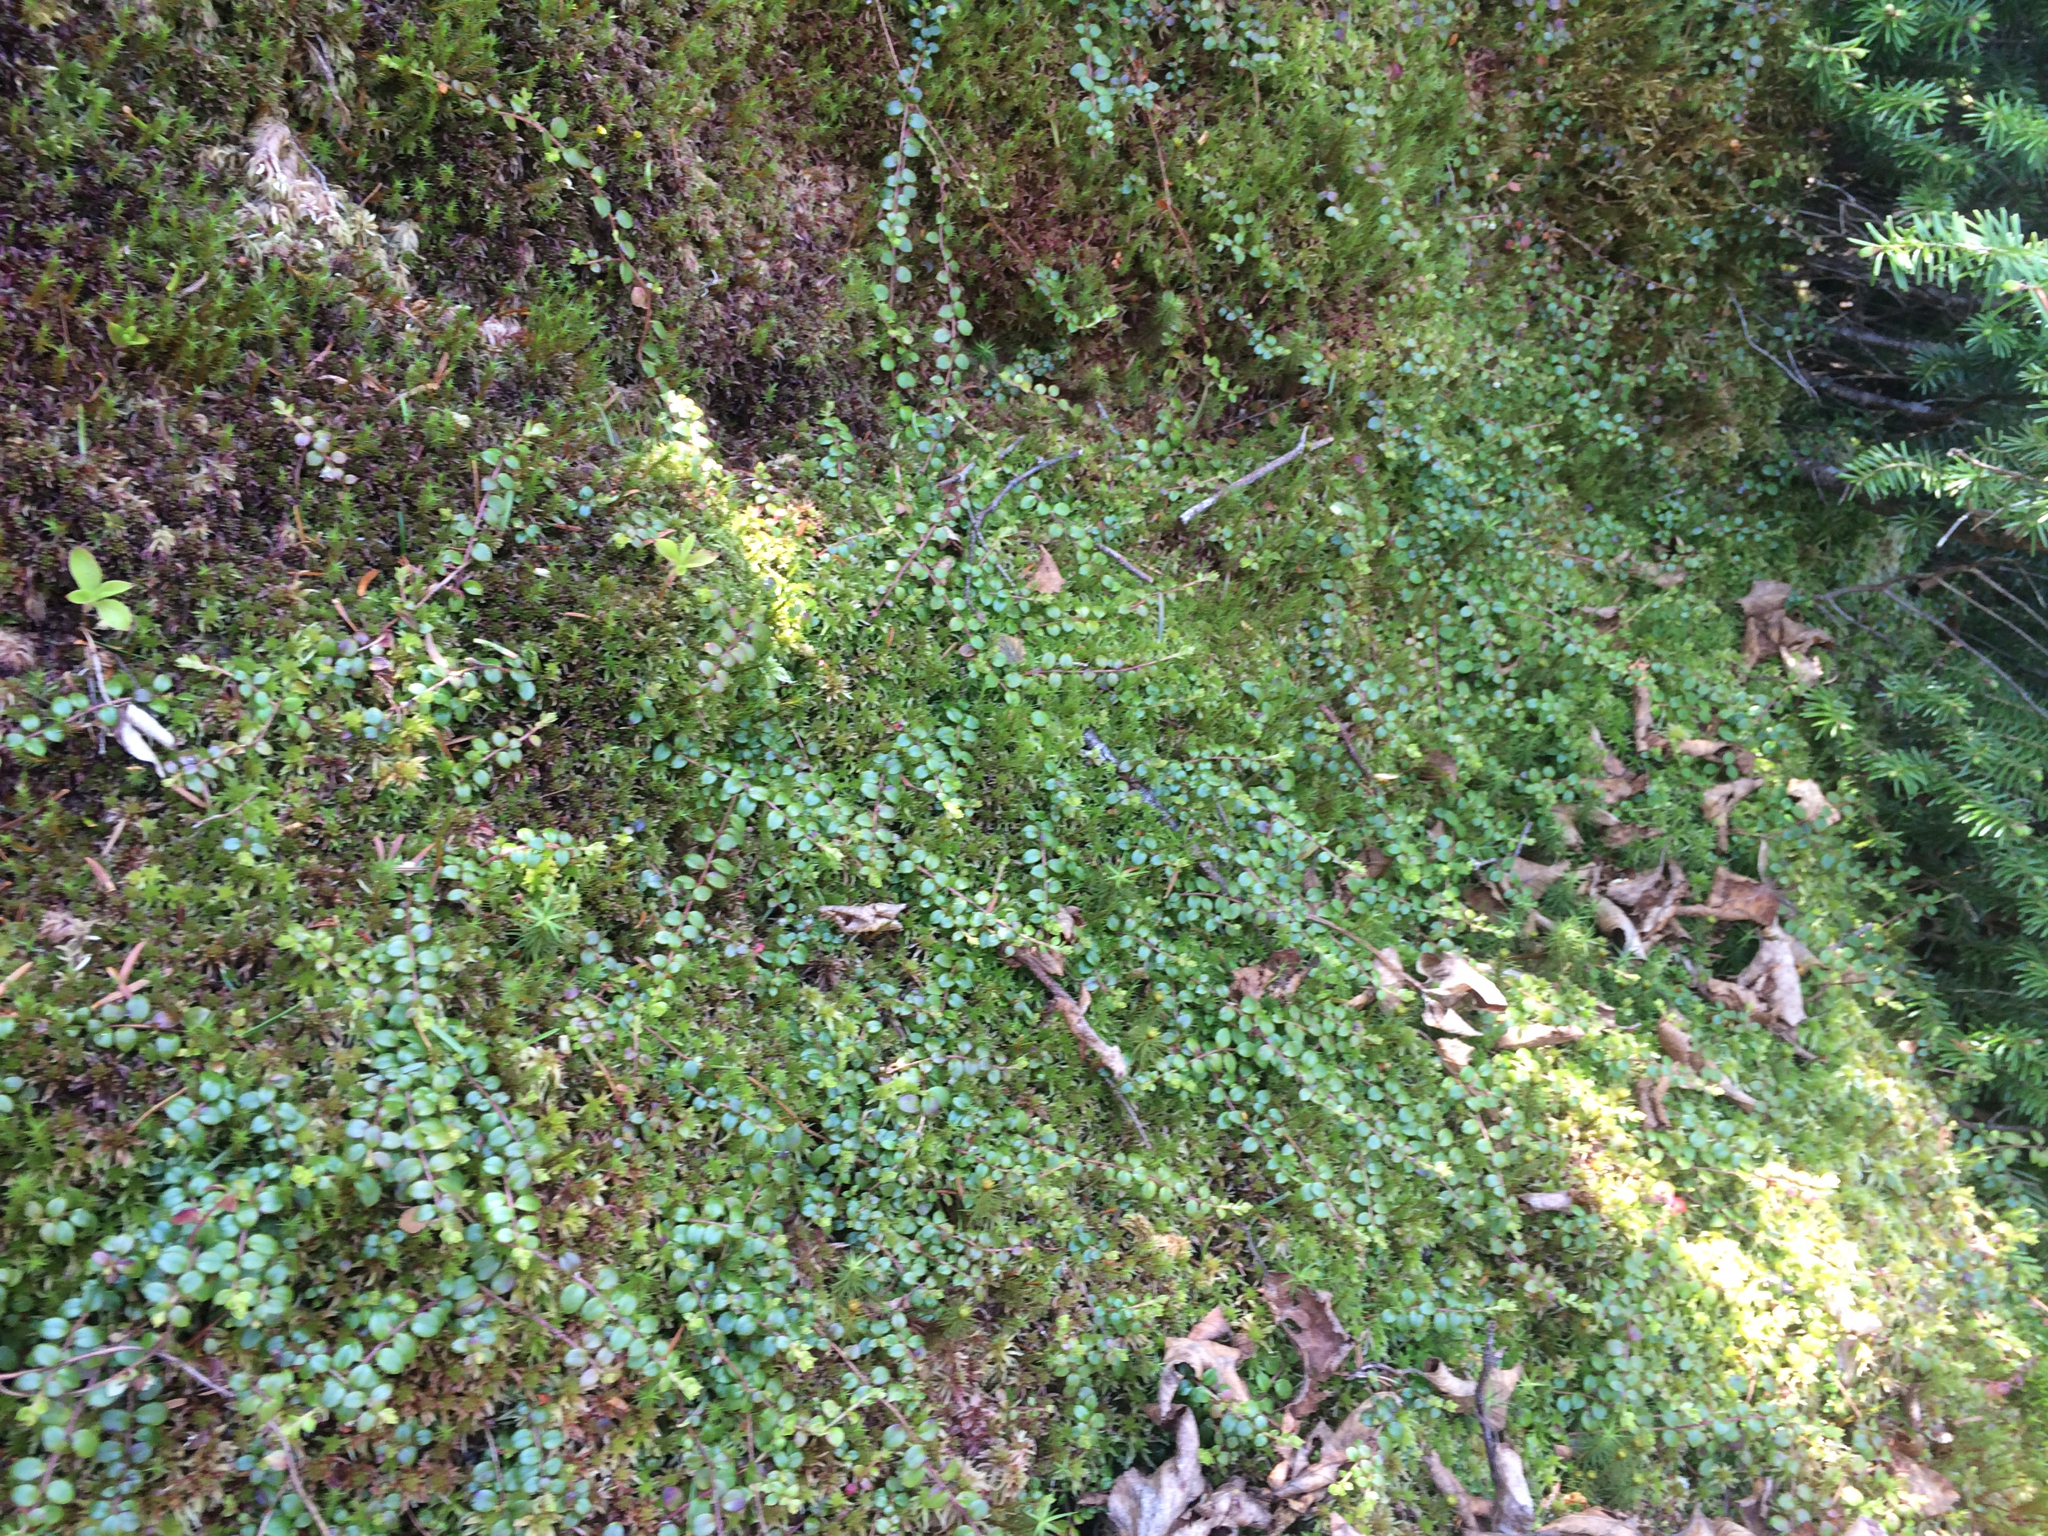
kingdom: Plantae
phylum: Tracheophyta
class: Magnoliopsida
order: Ericales
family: Ericaceae
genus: Gaultheria
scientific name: Gaultheria hispidula
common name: Cancer wintergreen
